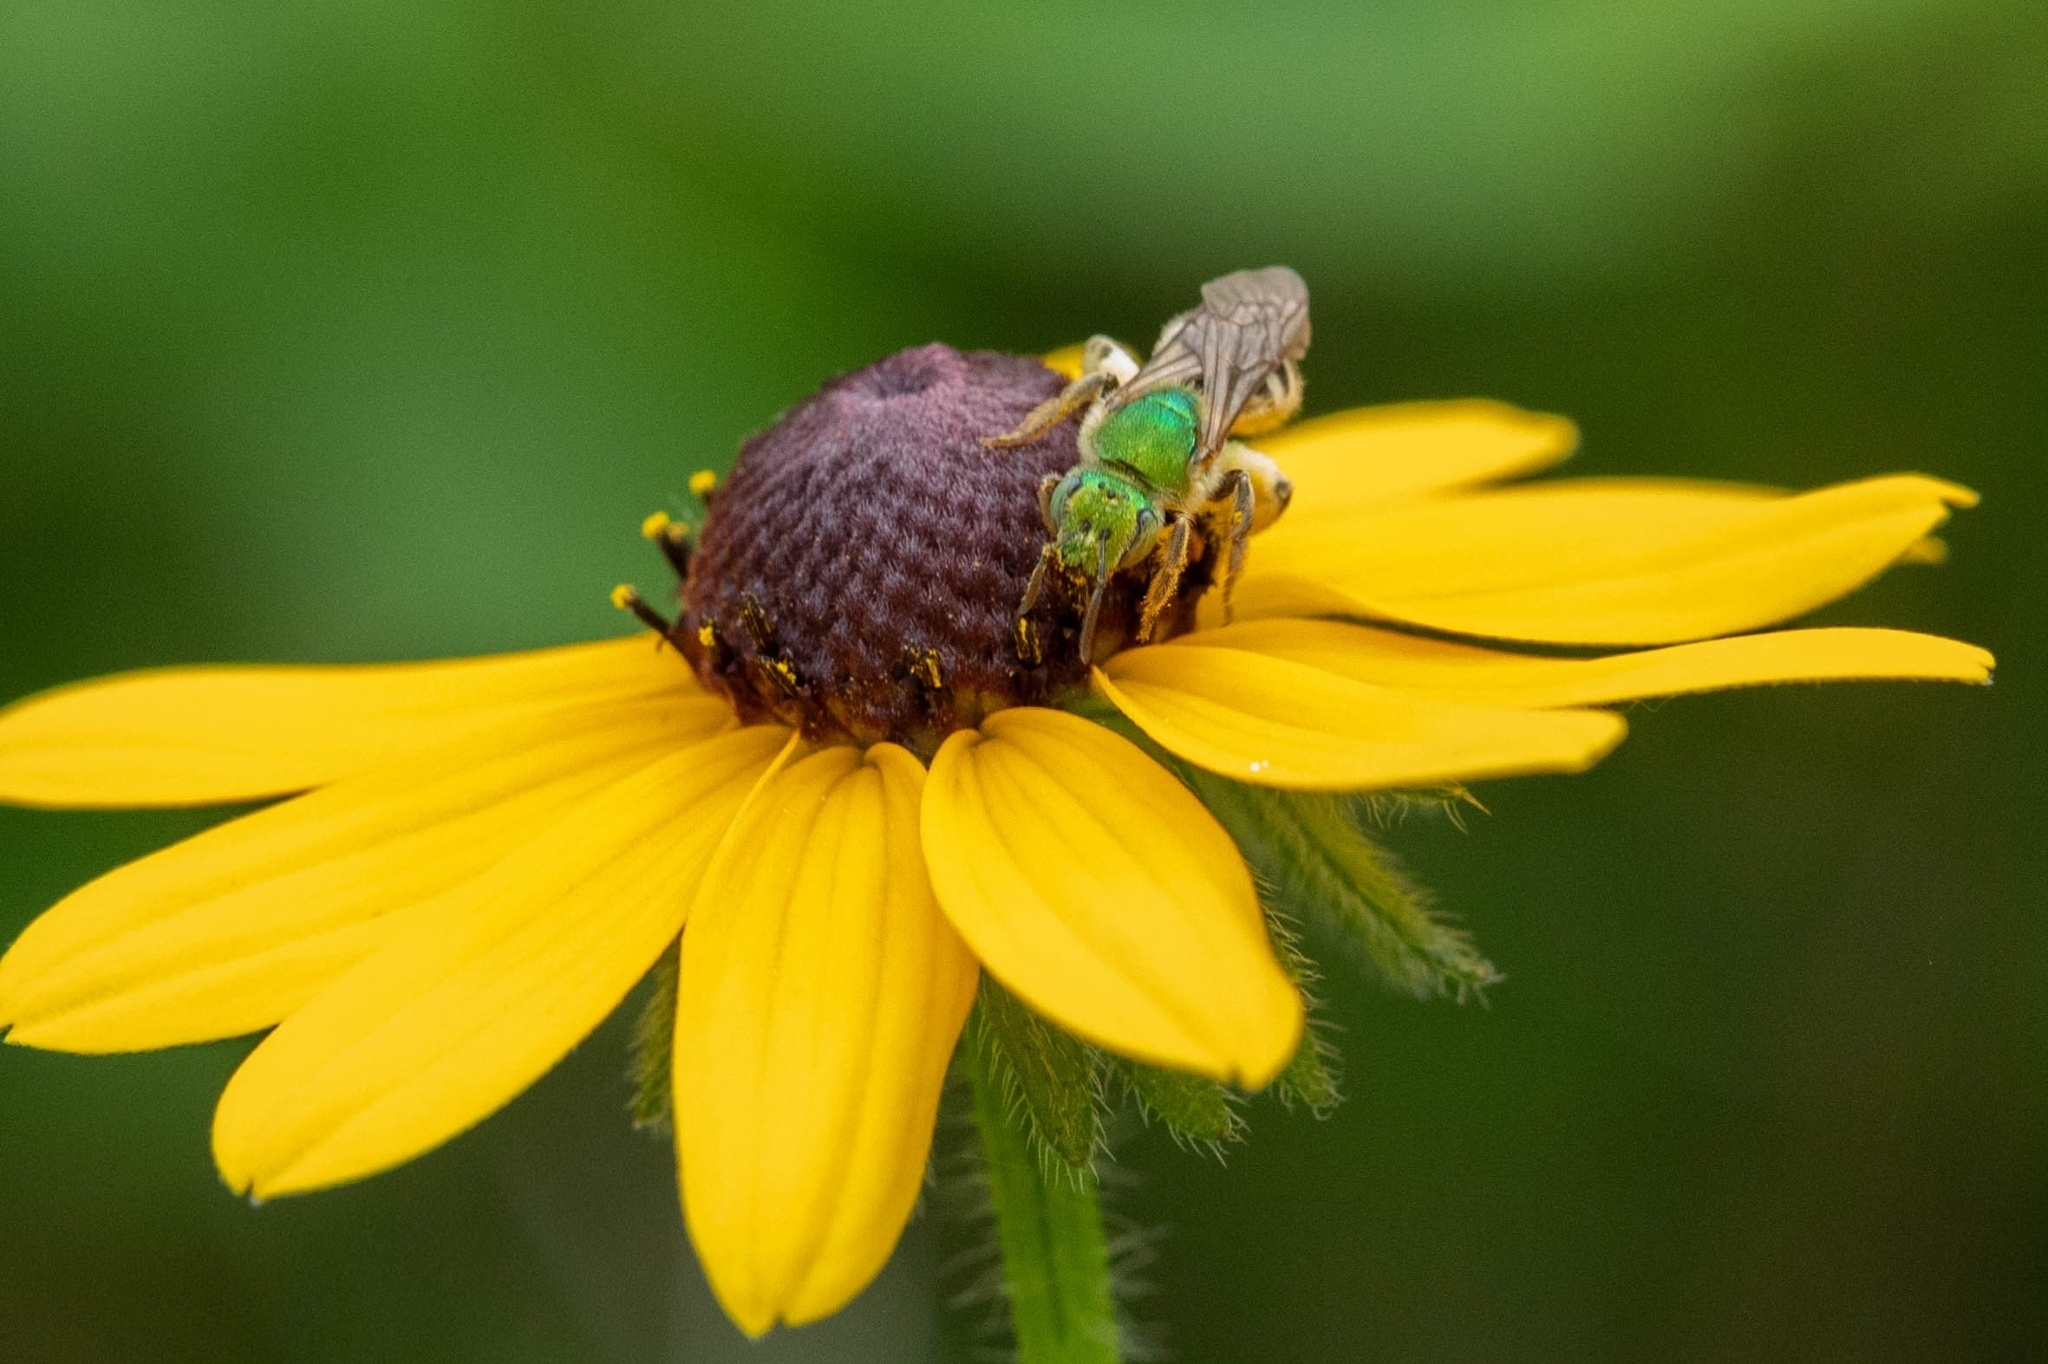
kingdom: Animalia
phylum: Arthropoda
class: Insecta
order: Hymenoptera
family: Halictidae
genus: Agapostemon
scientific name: Agapostemon virescens
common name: Bicolored striped sweat bee
